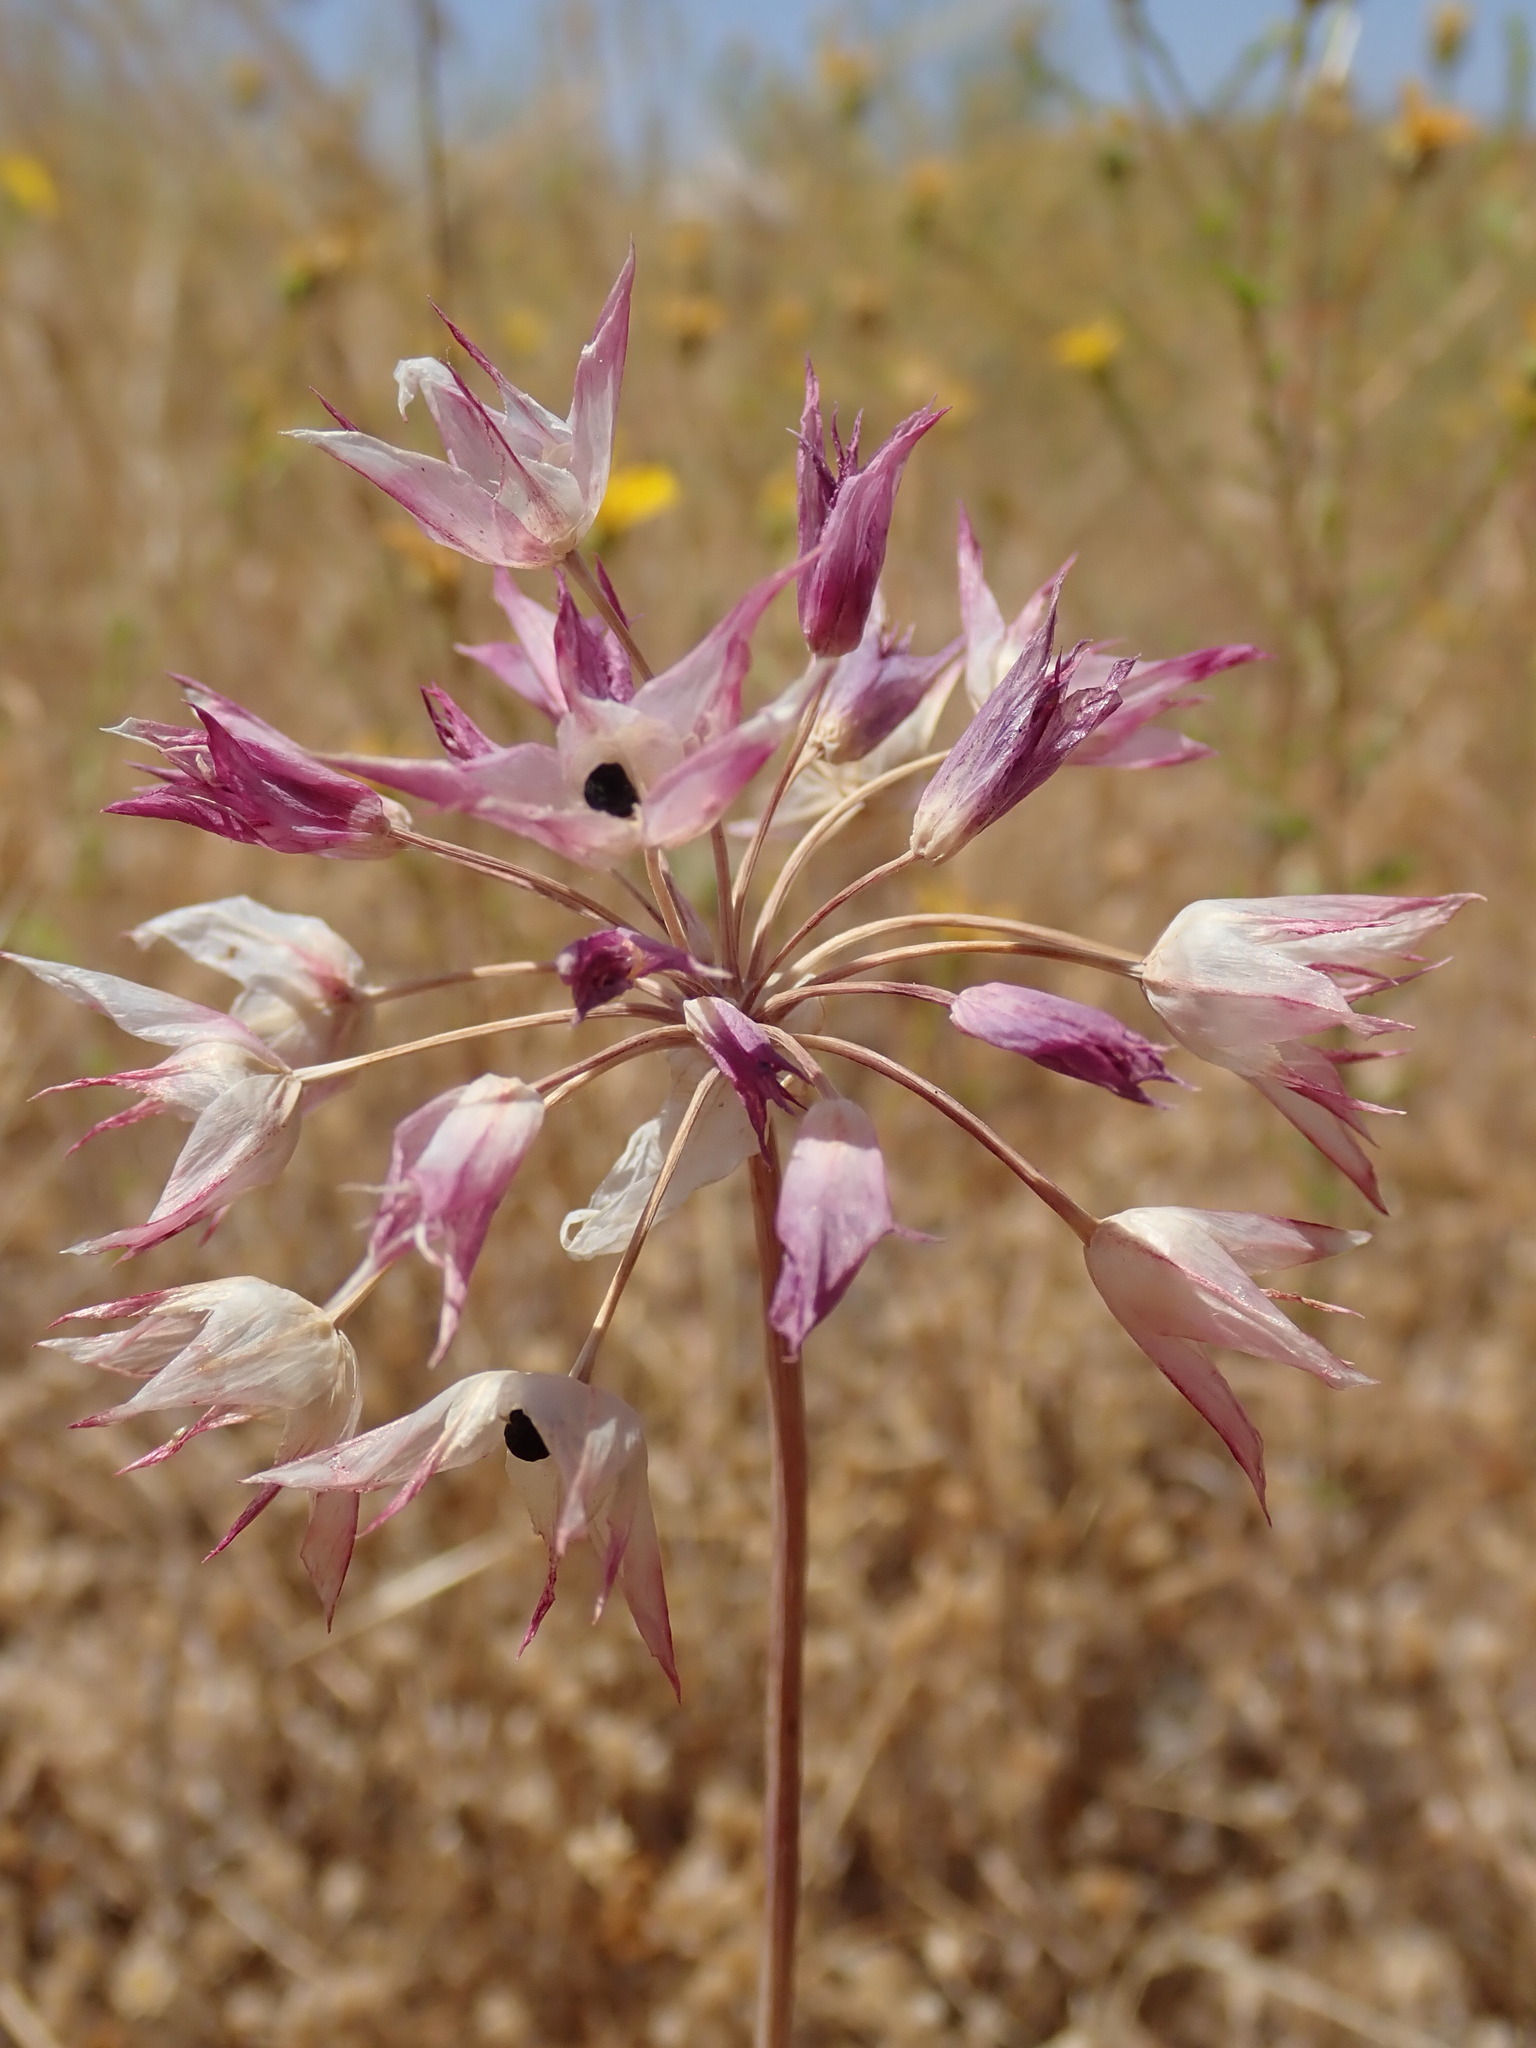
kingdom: Plantae
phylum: Tracheophyta
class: Liliopsida
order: Asparagales
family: Amaryllidaceae
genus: Allium
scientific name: Allium crispum
